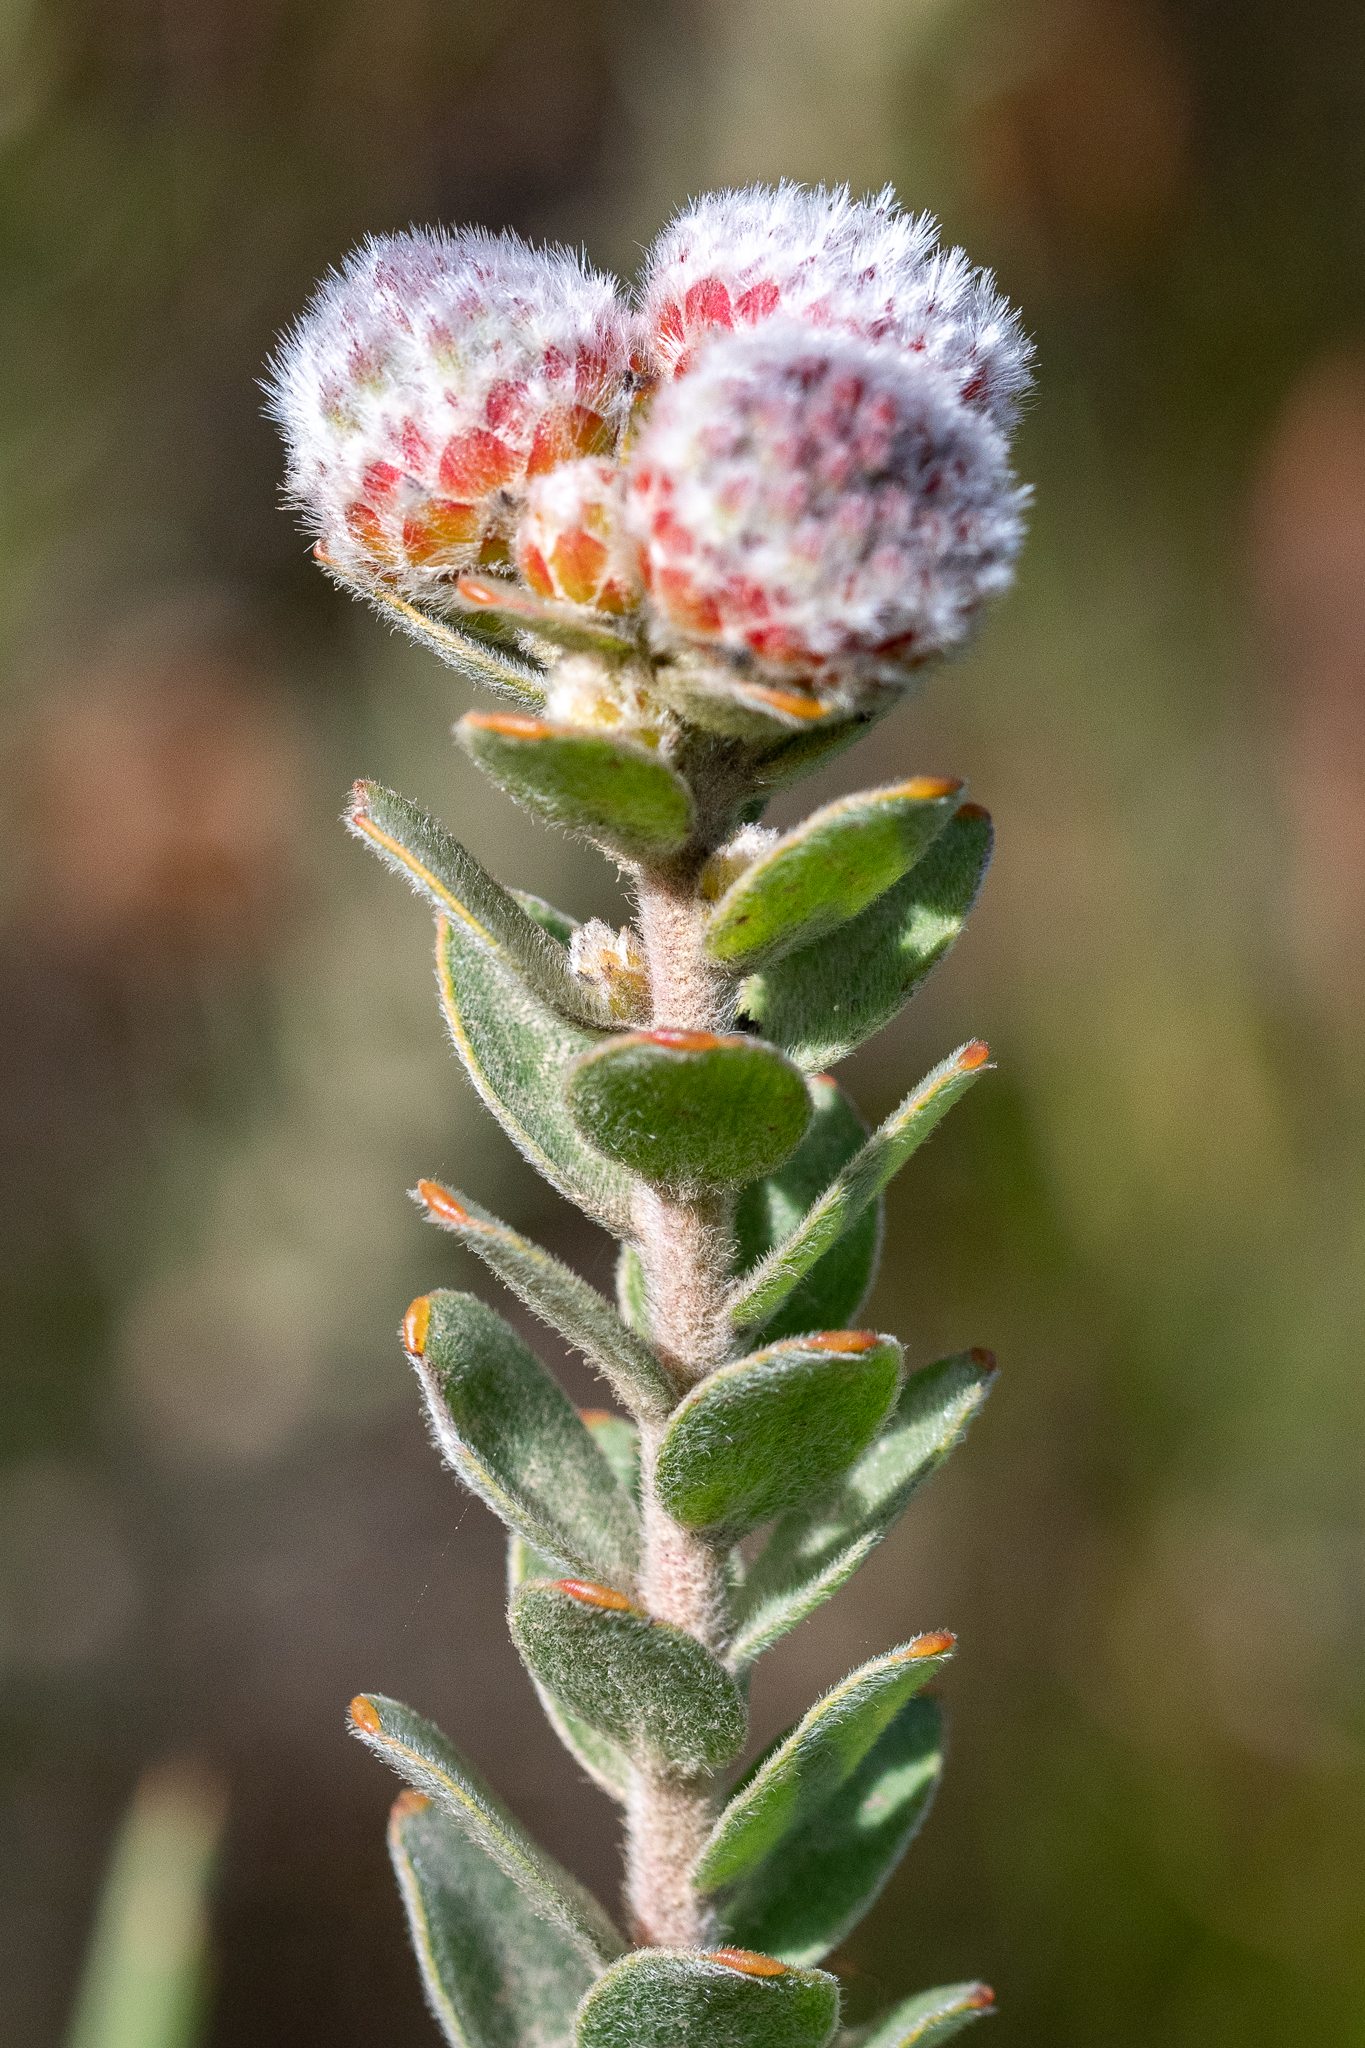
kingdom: Plantae
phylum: Tracheophyta
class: Magnoliopsida
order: Proteales
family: Proteaceae
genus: Leucospermum
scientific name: Leucospermum truncatulum
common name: Oval-leaf pincushion
